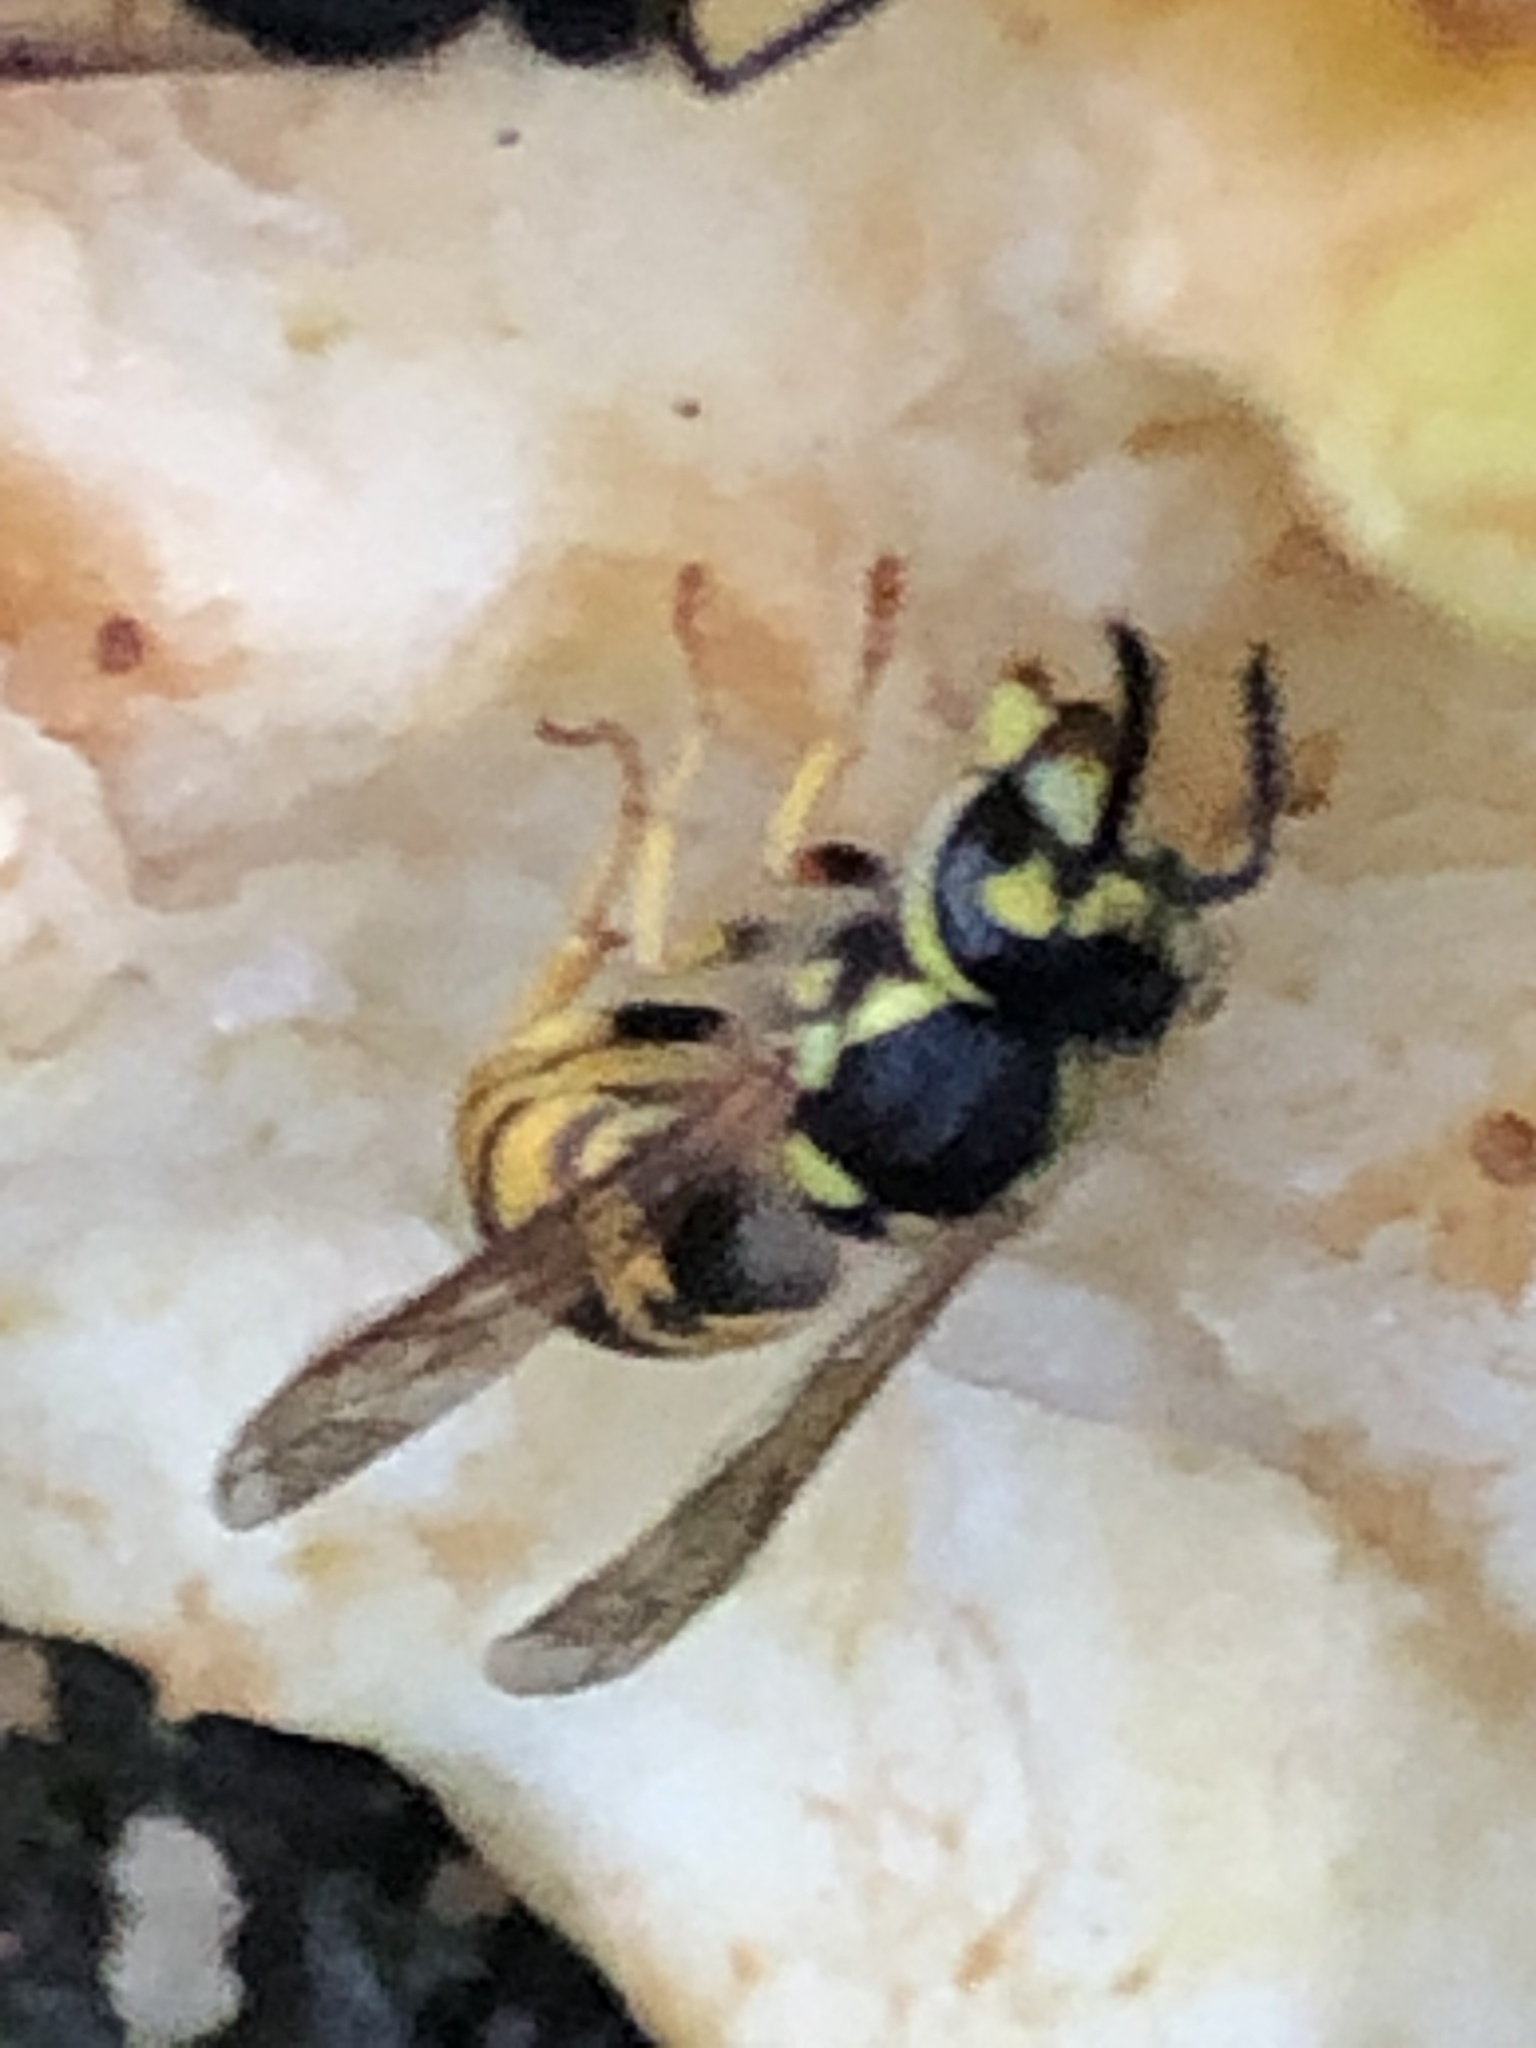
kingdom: Animalia
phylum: Arthropoda
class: Insecta
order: Hymenoptera
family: Vespidae
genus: Vespula
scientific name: Vespula germanica
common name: German wasp
